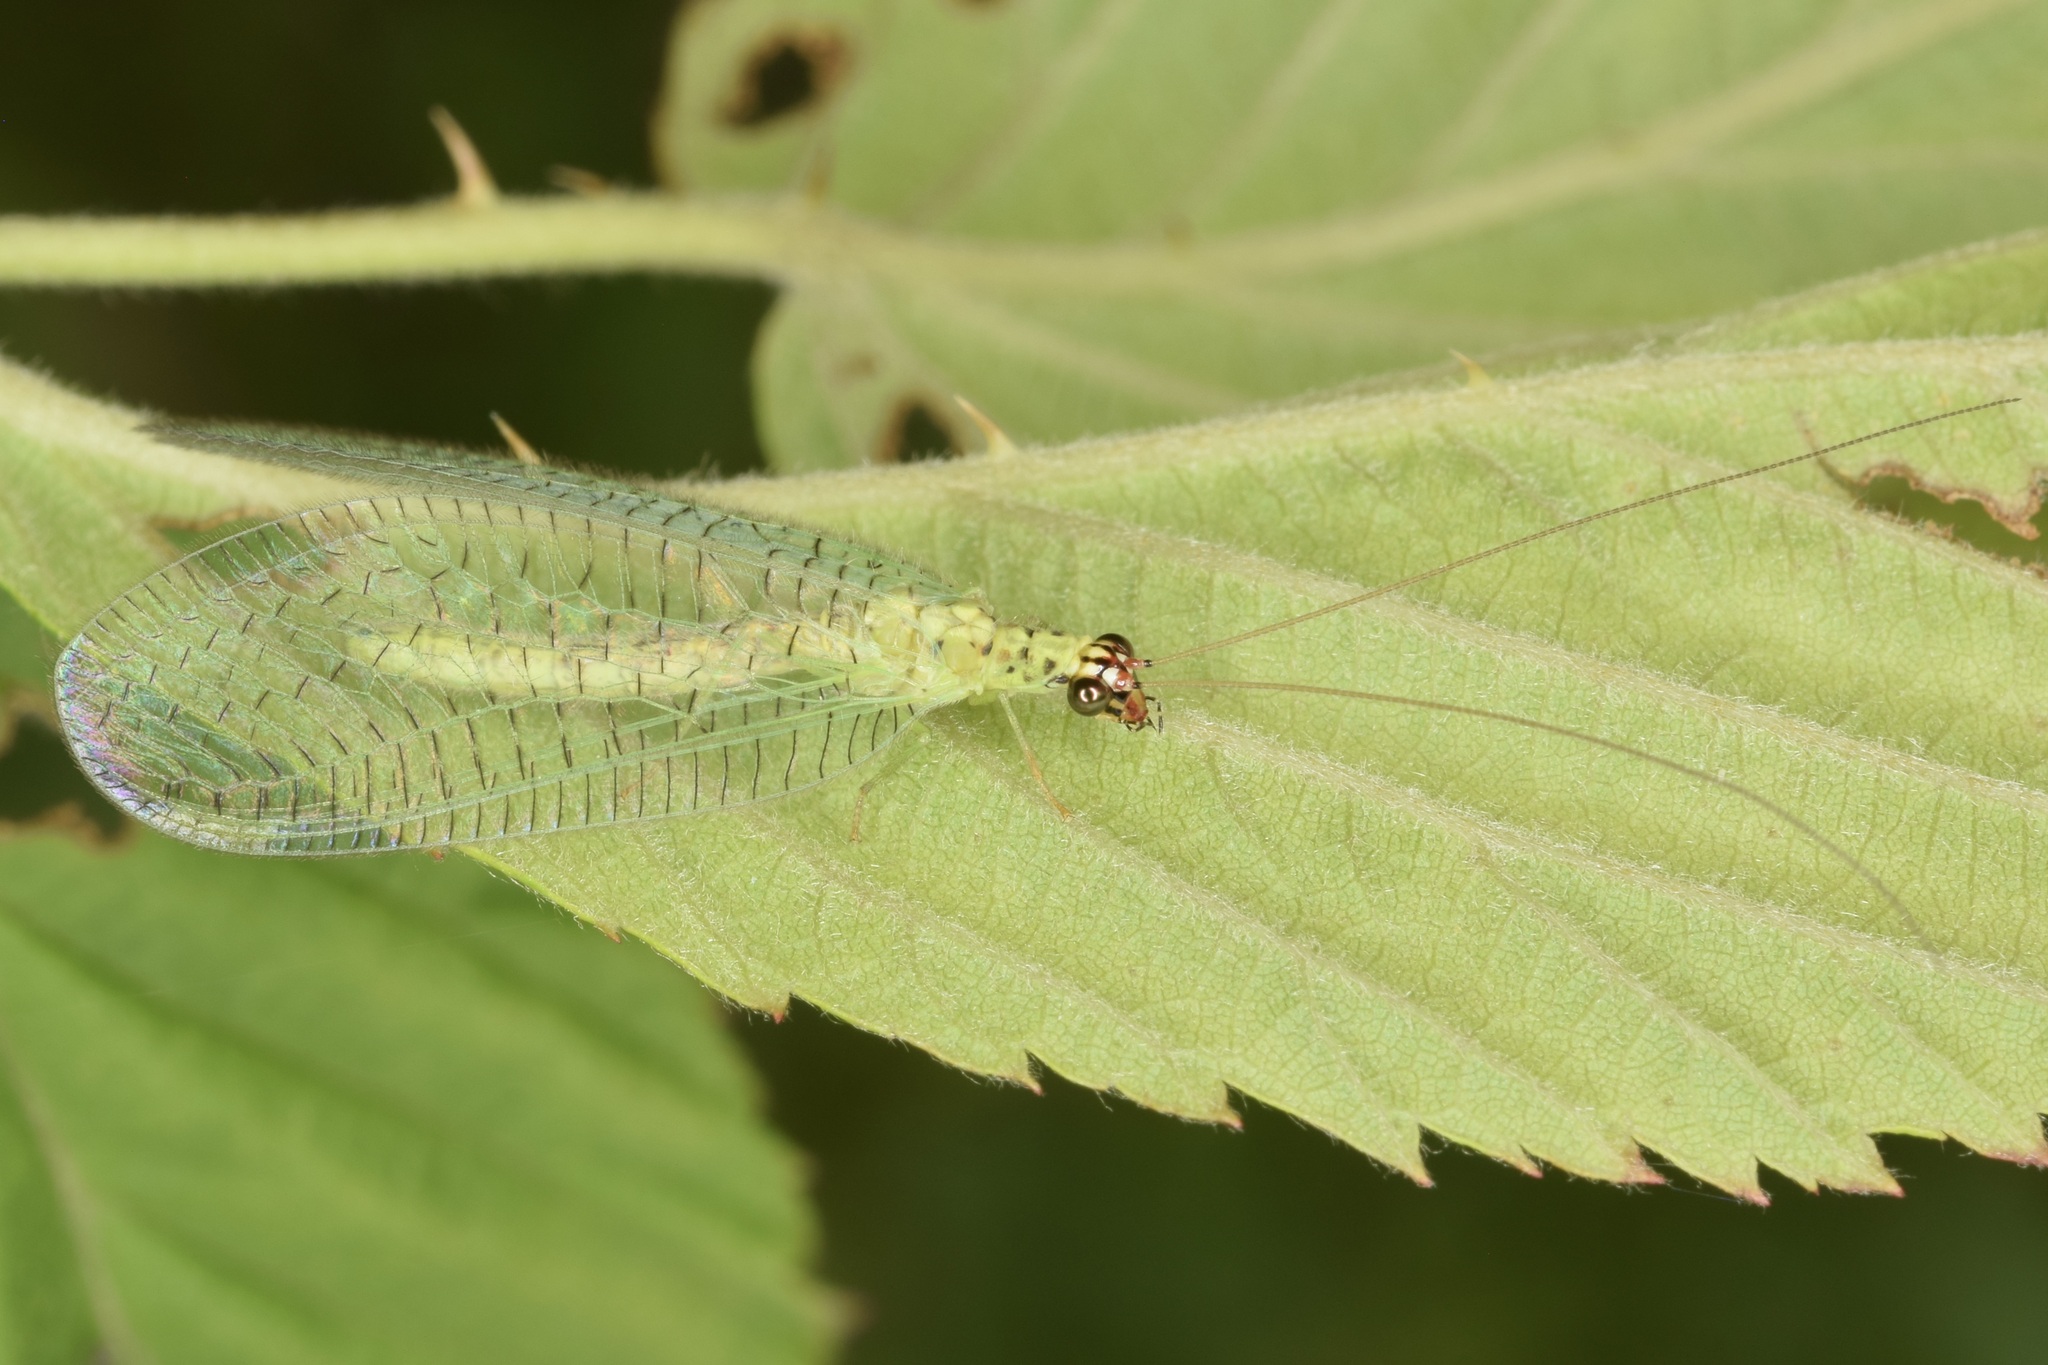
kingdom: Animalia
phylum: Arthropoda
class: Insecta
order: Neuroptera
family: Chrysopidae
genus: Chrysopa
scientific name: Chrysopa oculata
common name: Golden-eyed lacewing
